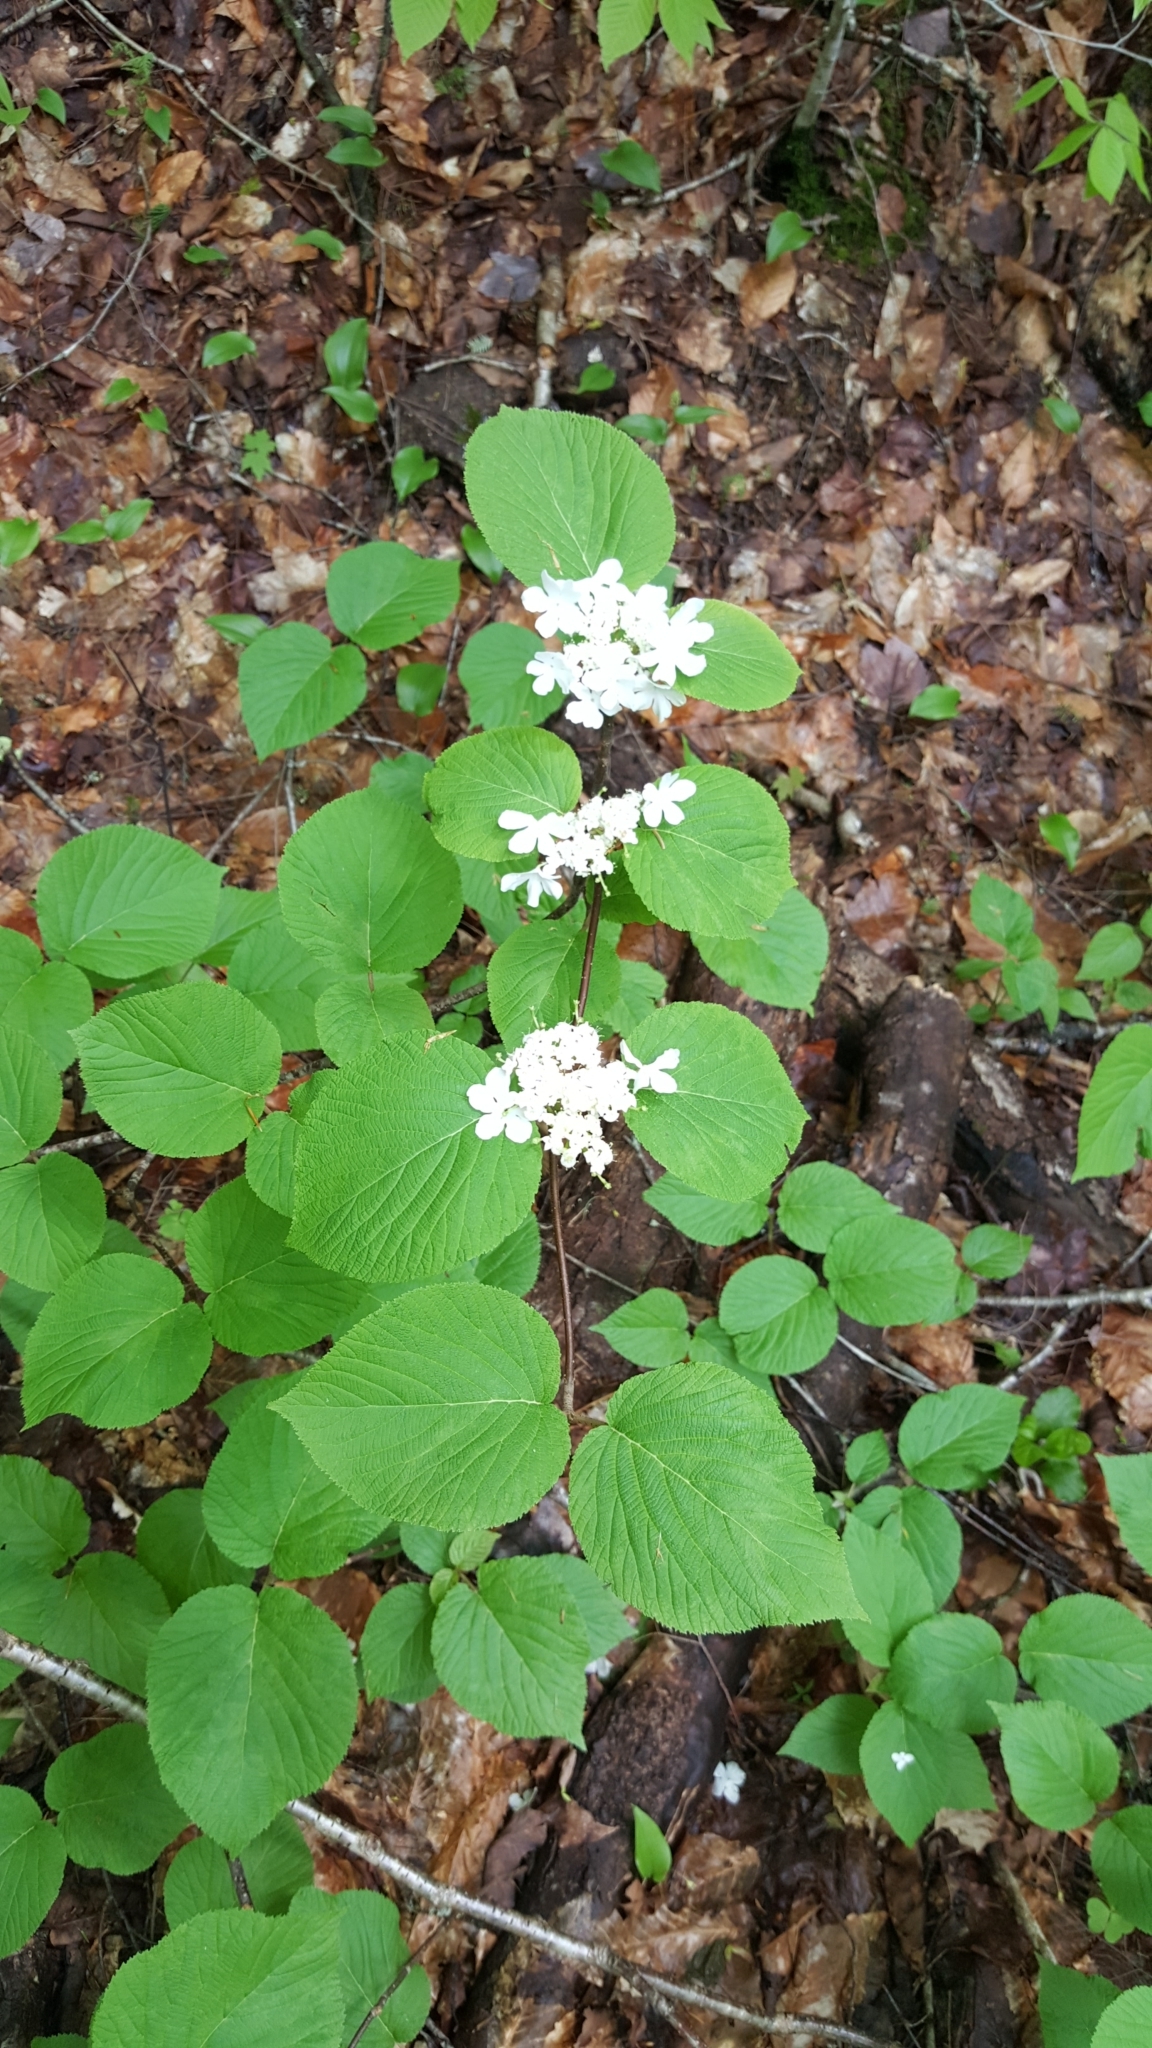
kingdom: Plantae
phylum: Tracheophyta
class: Magnoliopsida
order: Dipsacales
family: Viburnaceae
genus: Viburnum
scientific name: Viburnum lantanoides
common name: Hobblebush
